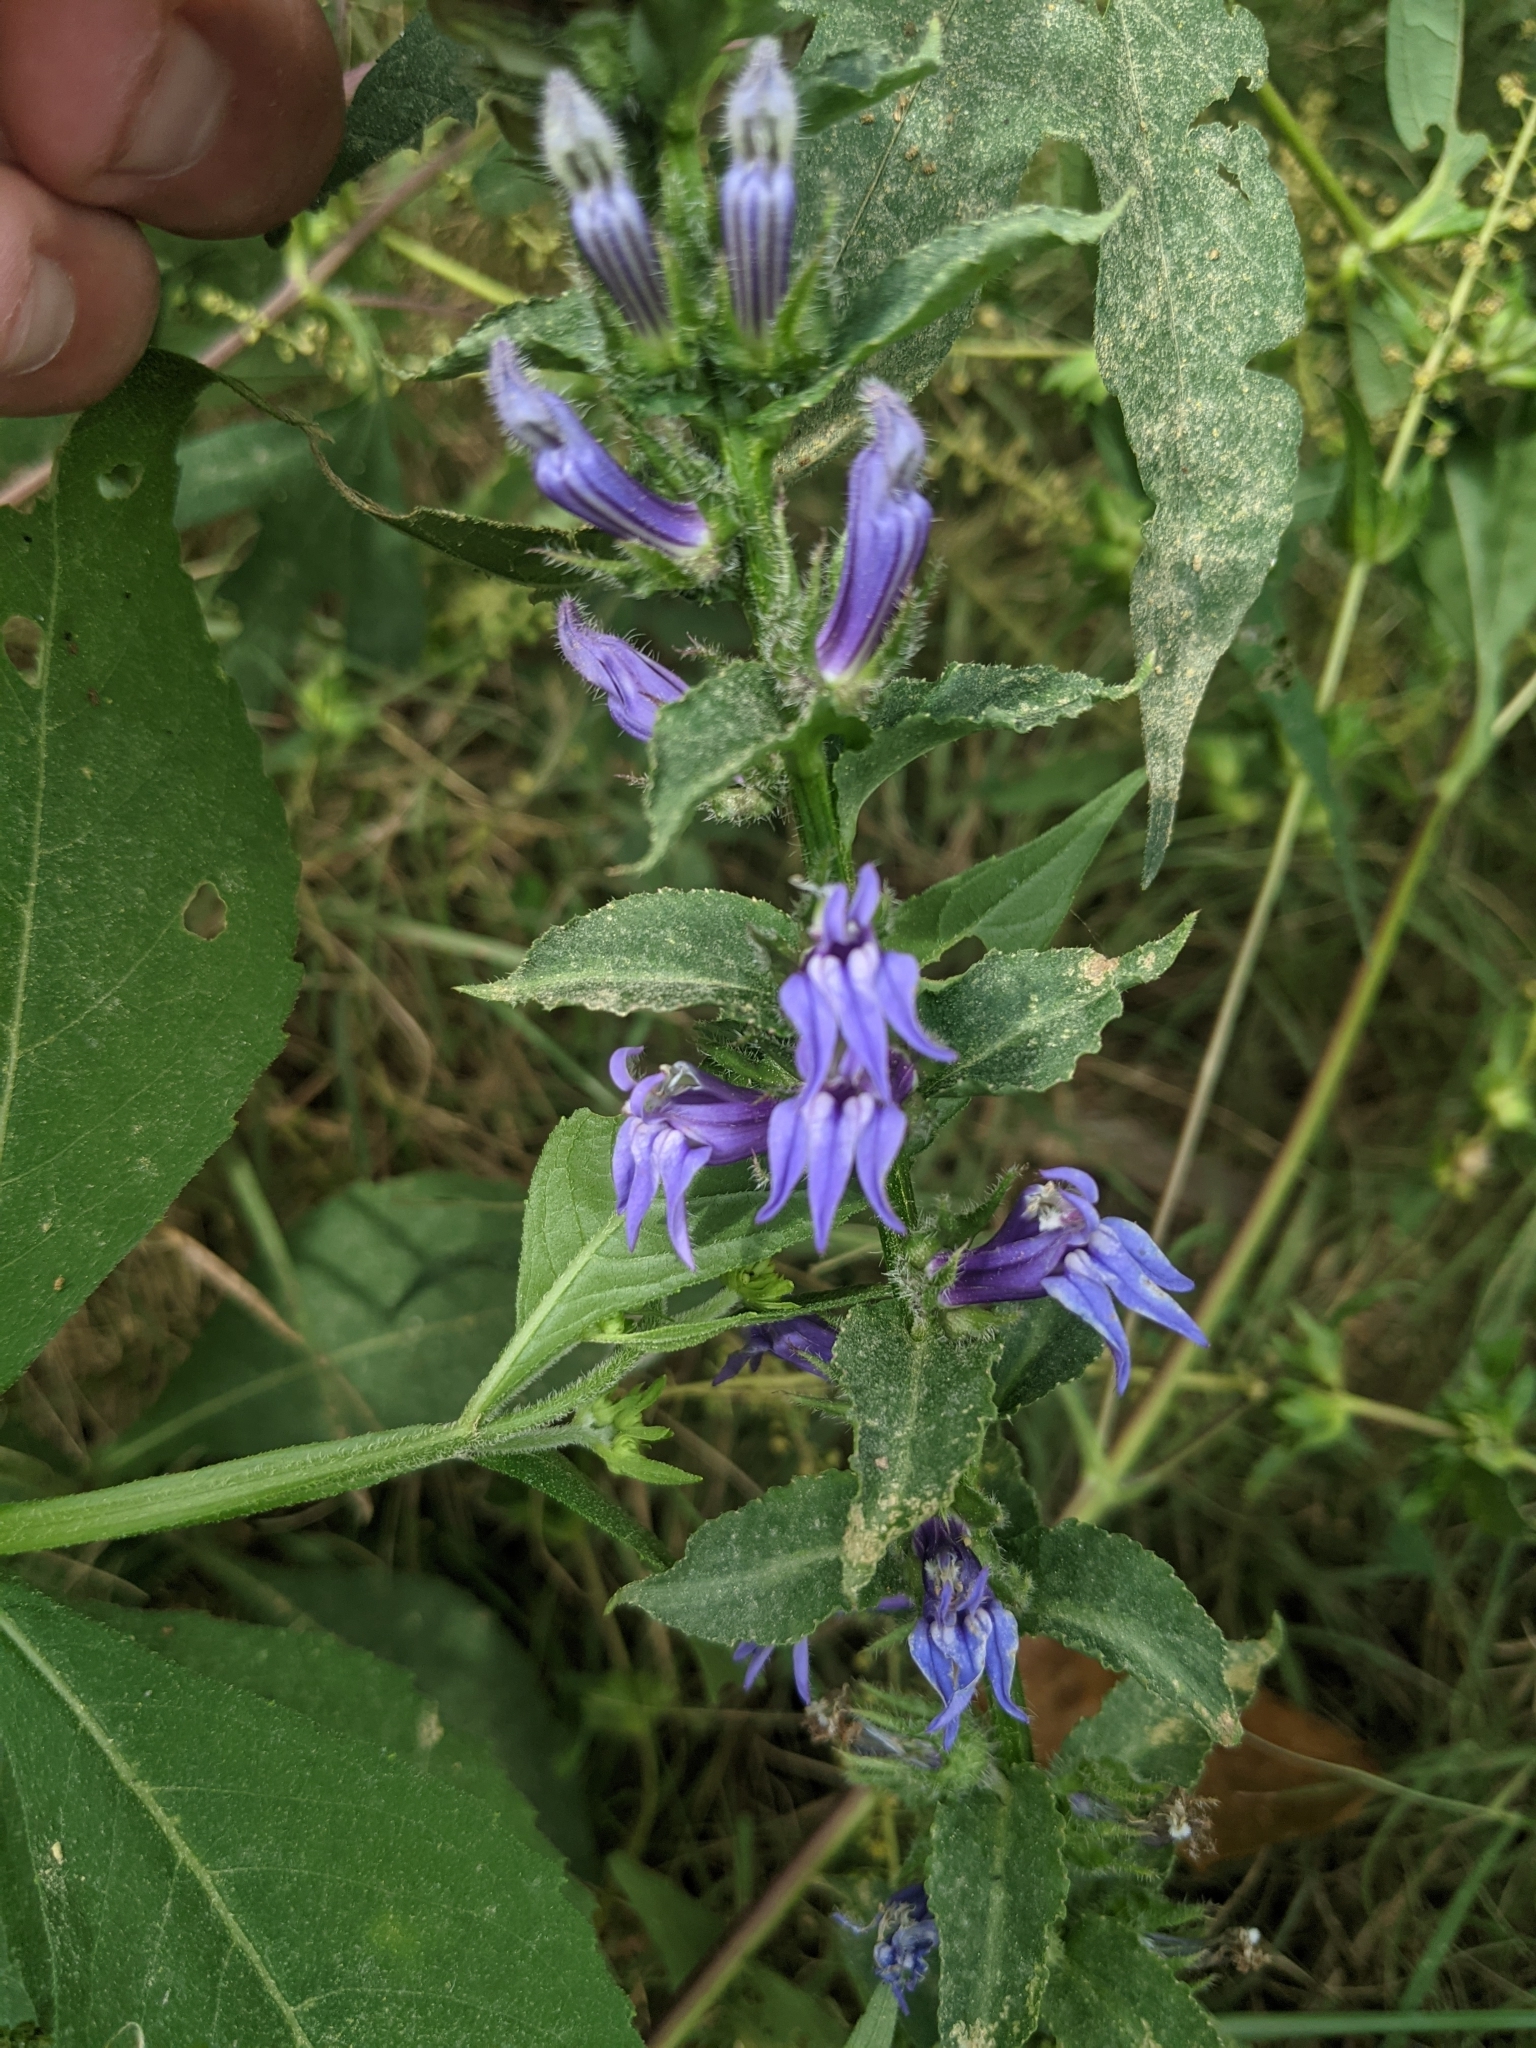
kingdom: Plantae
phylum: Tracheophyta
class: Magnoliopsida
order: Asterales
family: Campanulaceae
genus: Lobelia
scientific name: Lobelia siphilitica
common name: Great lobelia
